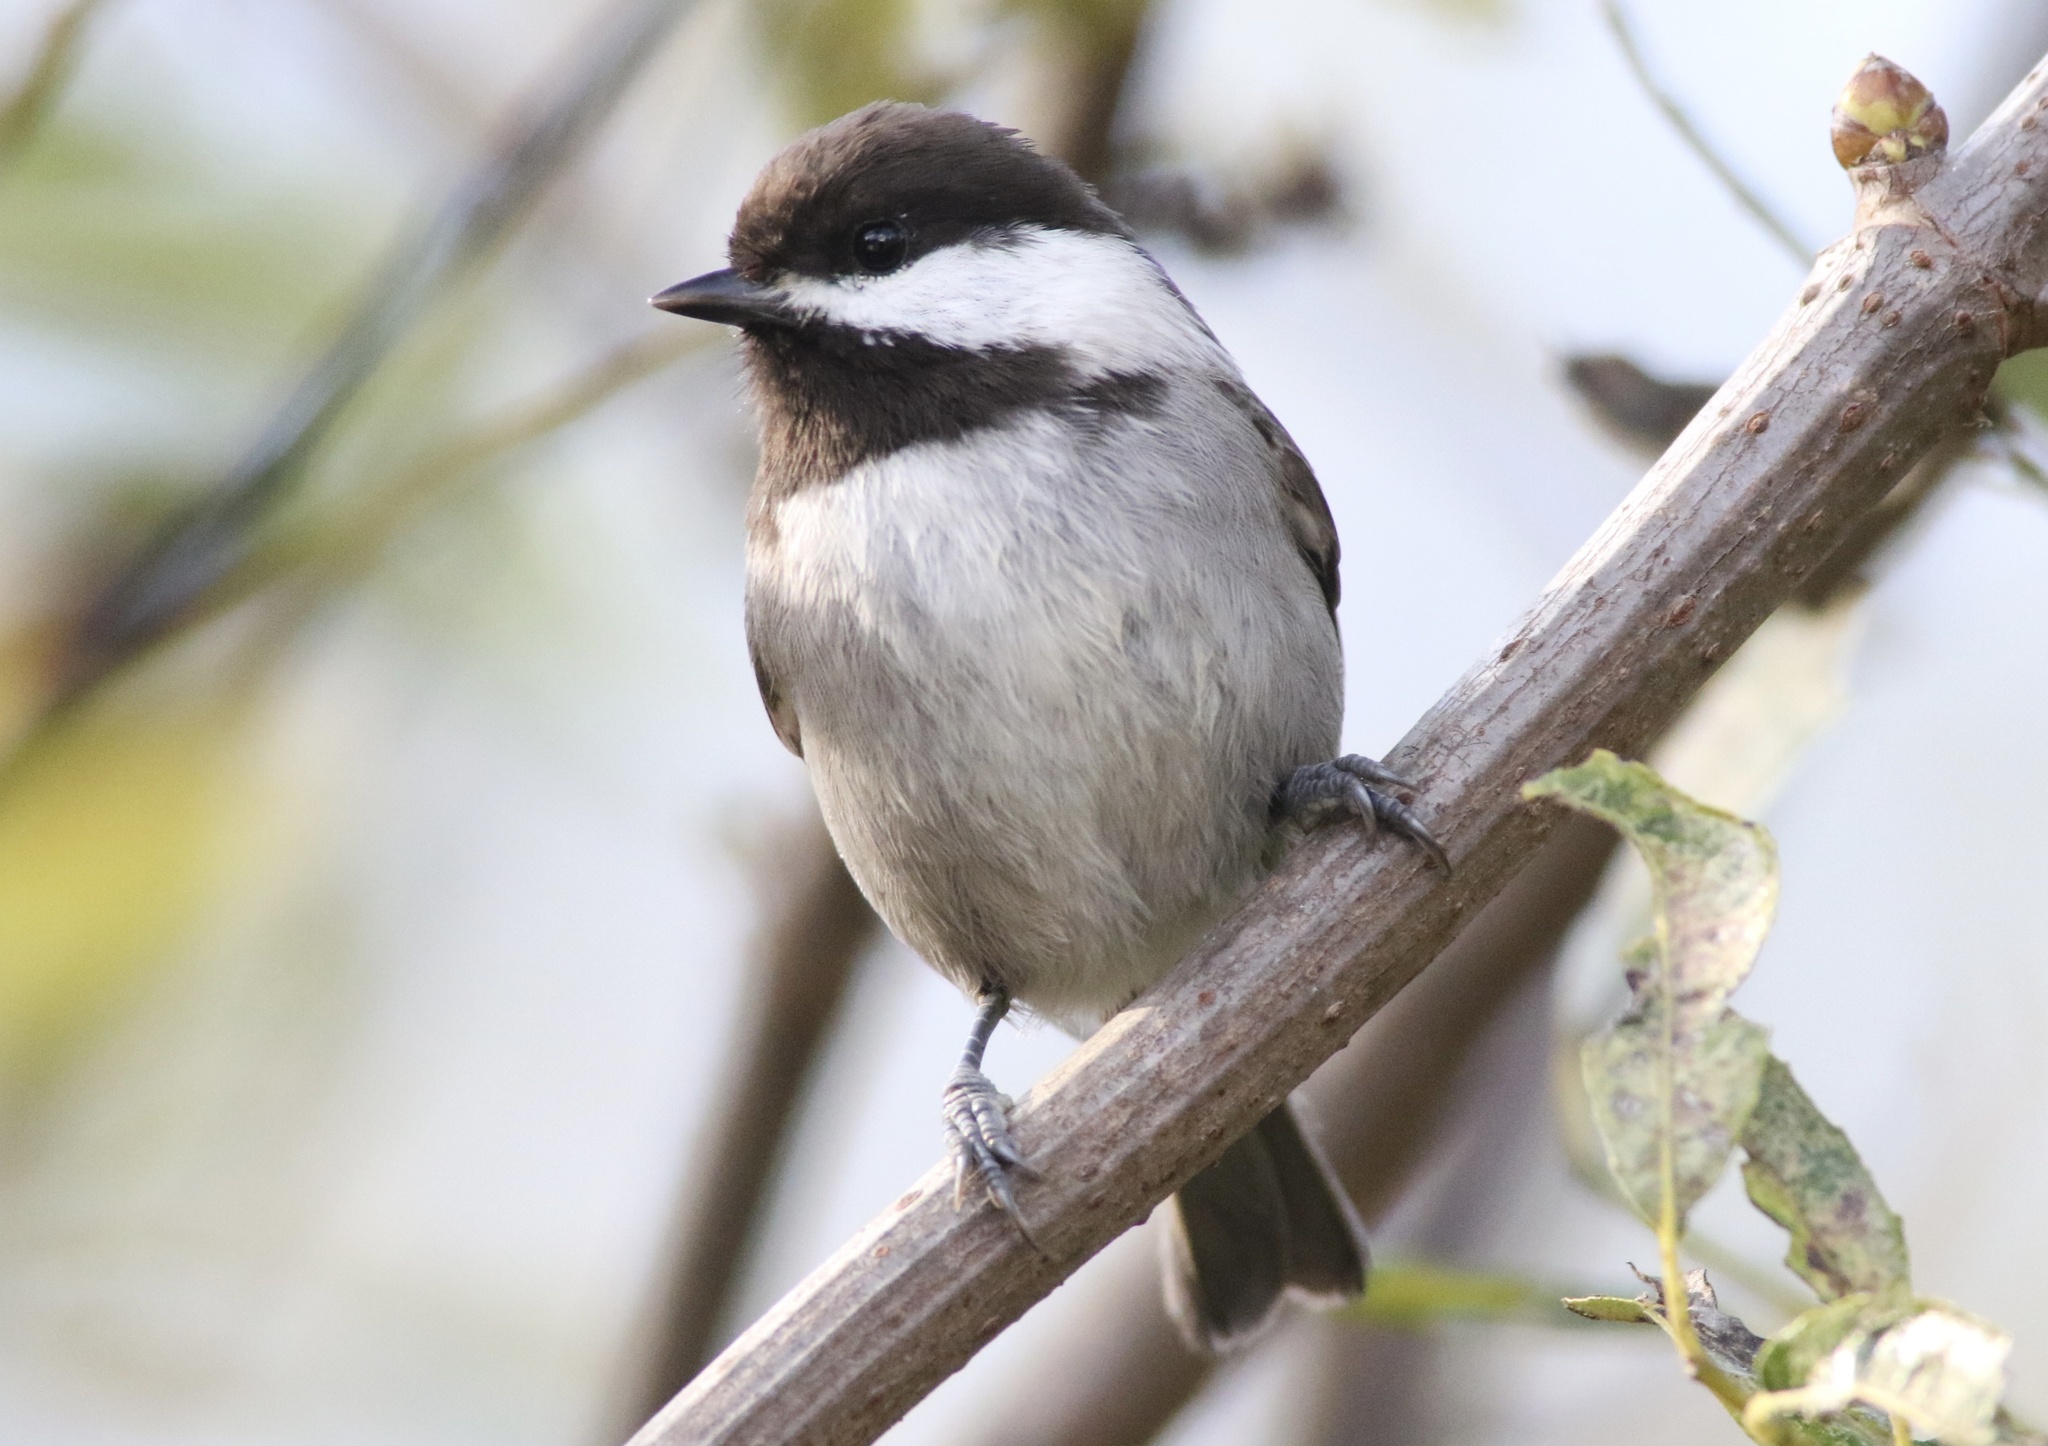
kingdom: Animalia
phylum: Chordata
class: Aves
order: Passeriformes
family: Paridae
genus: Poecile
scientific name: Poecile rufescens
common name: Chestnut-backed chickadee
